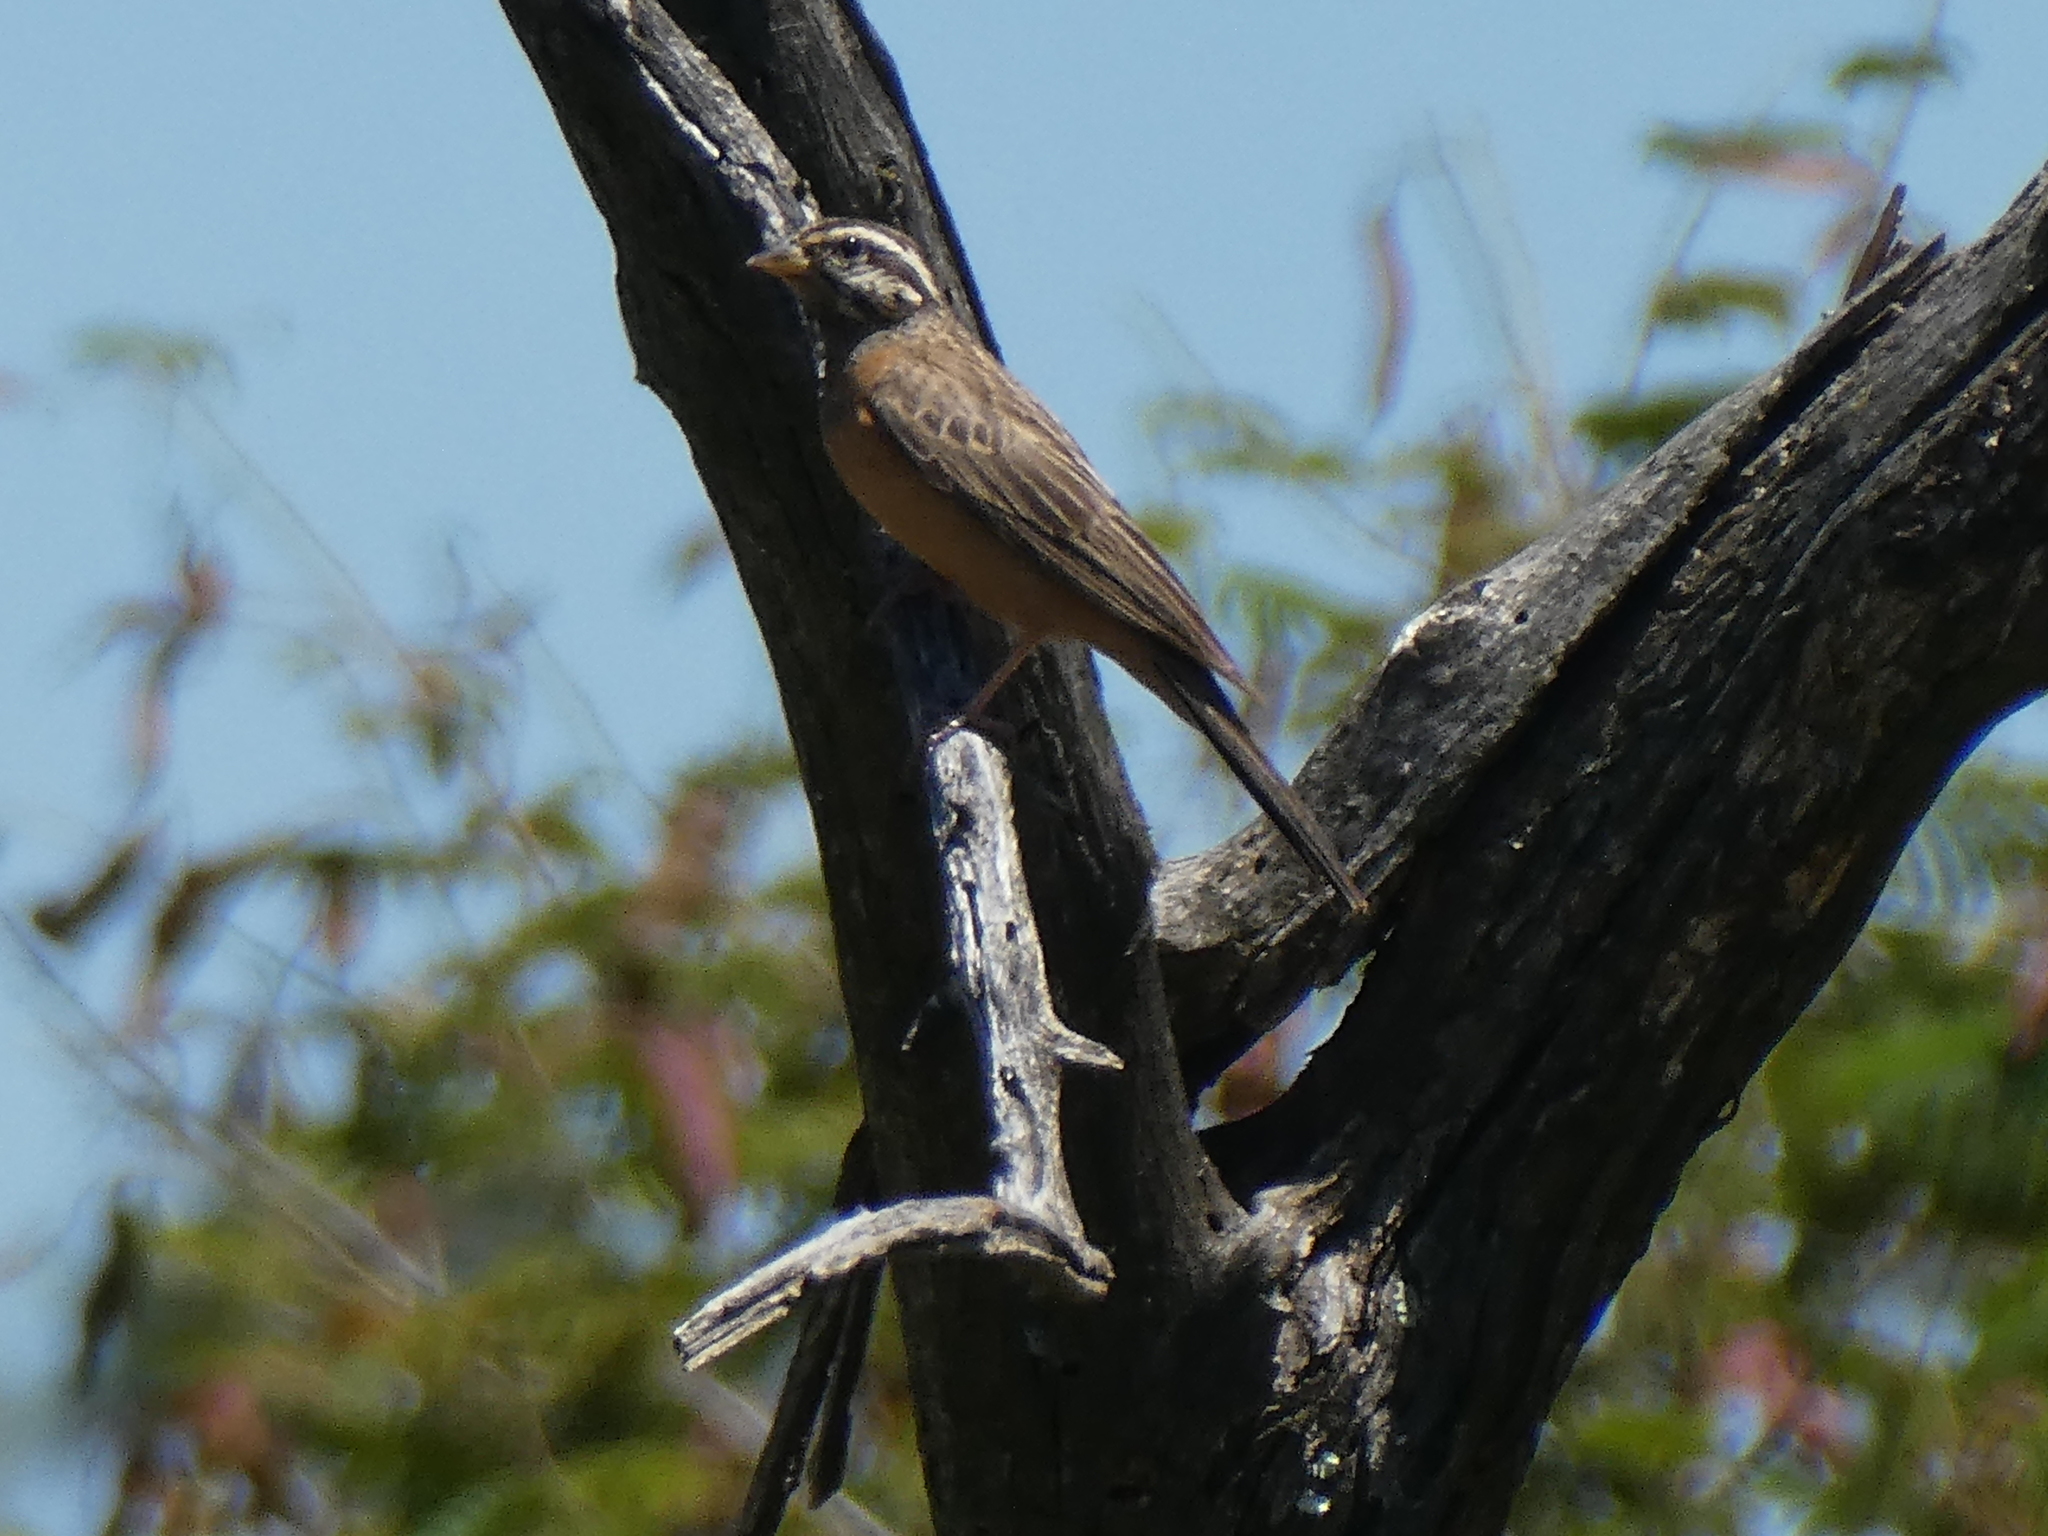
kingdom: Animalia
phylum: Chordata
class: Aves
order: Passeriformes
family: Emberizidae
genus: Emberiza
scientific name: Emberiza tahapisi
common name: Cinnamon-breasted bunting
